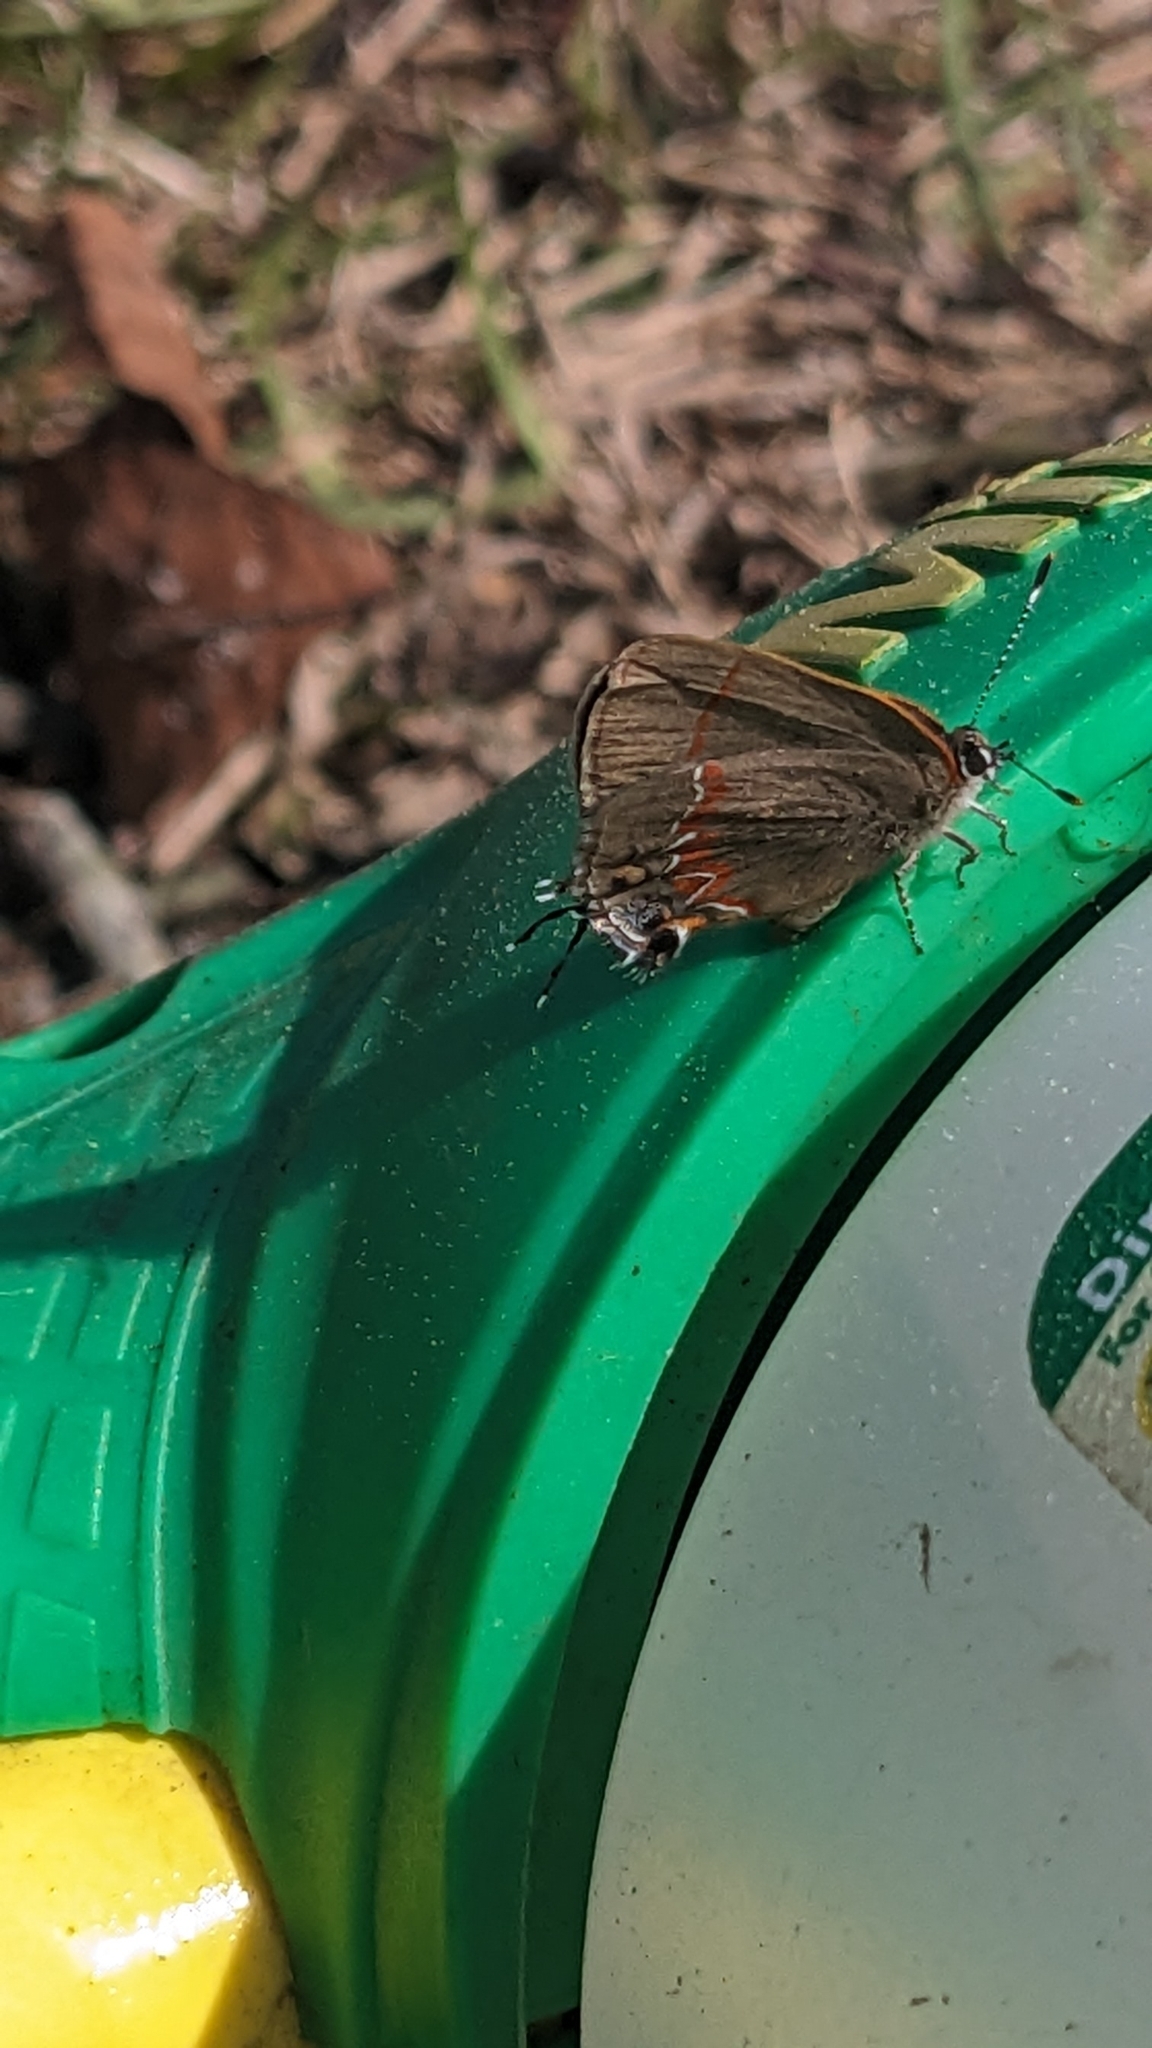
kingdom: Animalia
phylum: Arthropoda
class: Insecta
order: Lepidoptera
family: Lycaenidae
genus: Calycopis
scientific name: Calycopis cecrops
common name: Red-banded hairstreak
